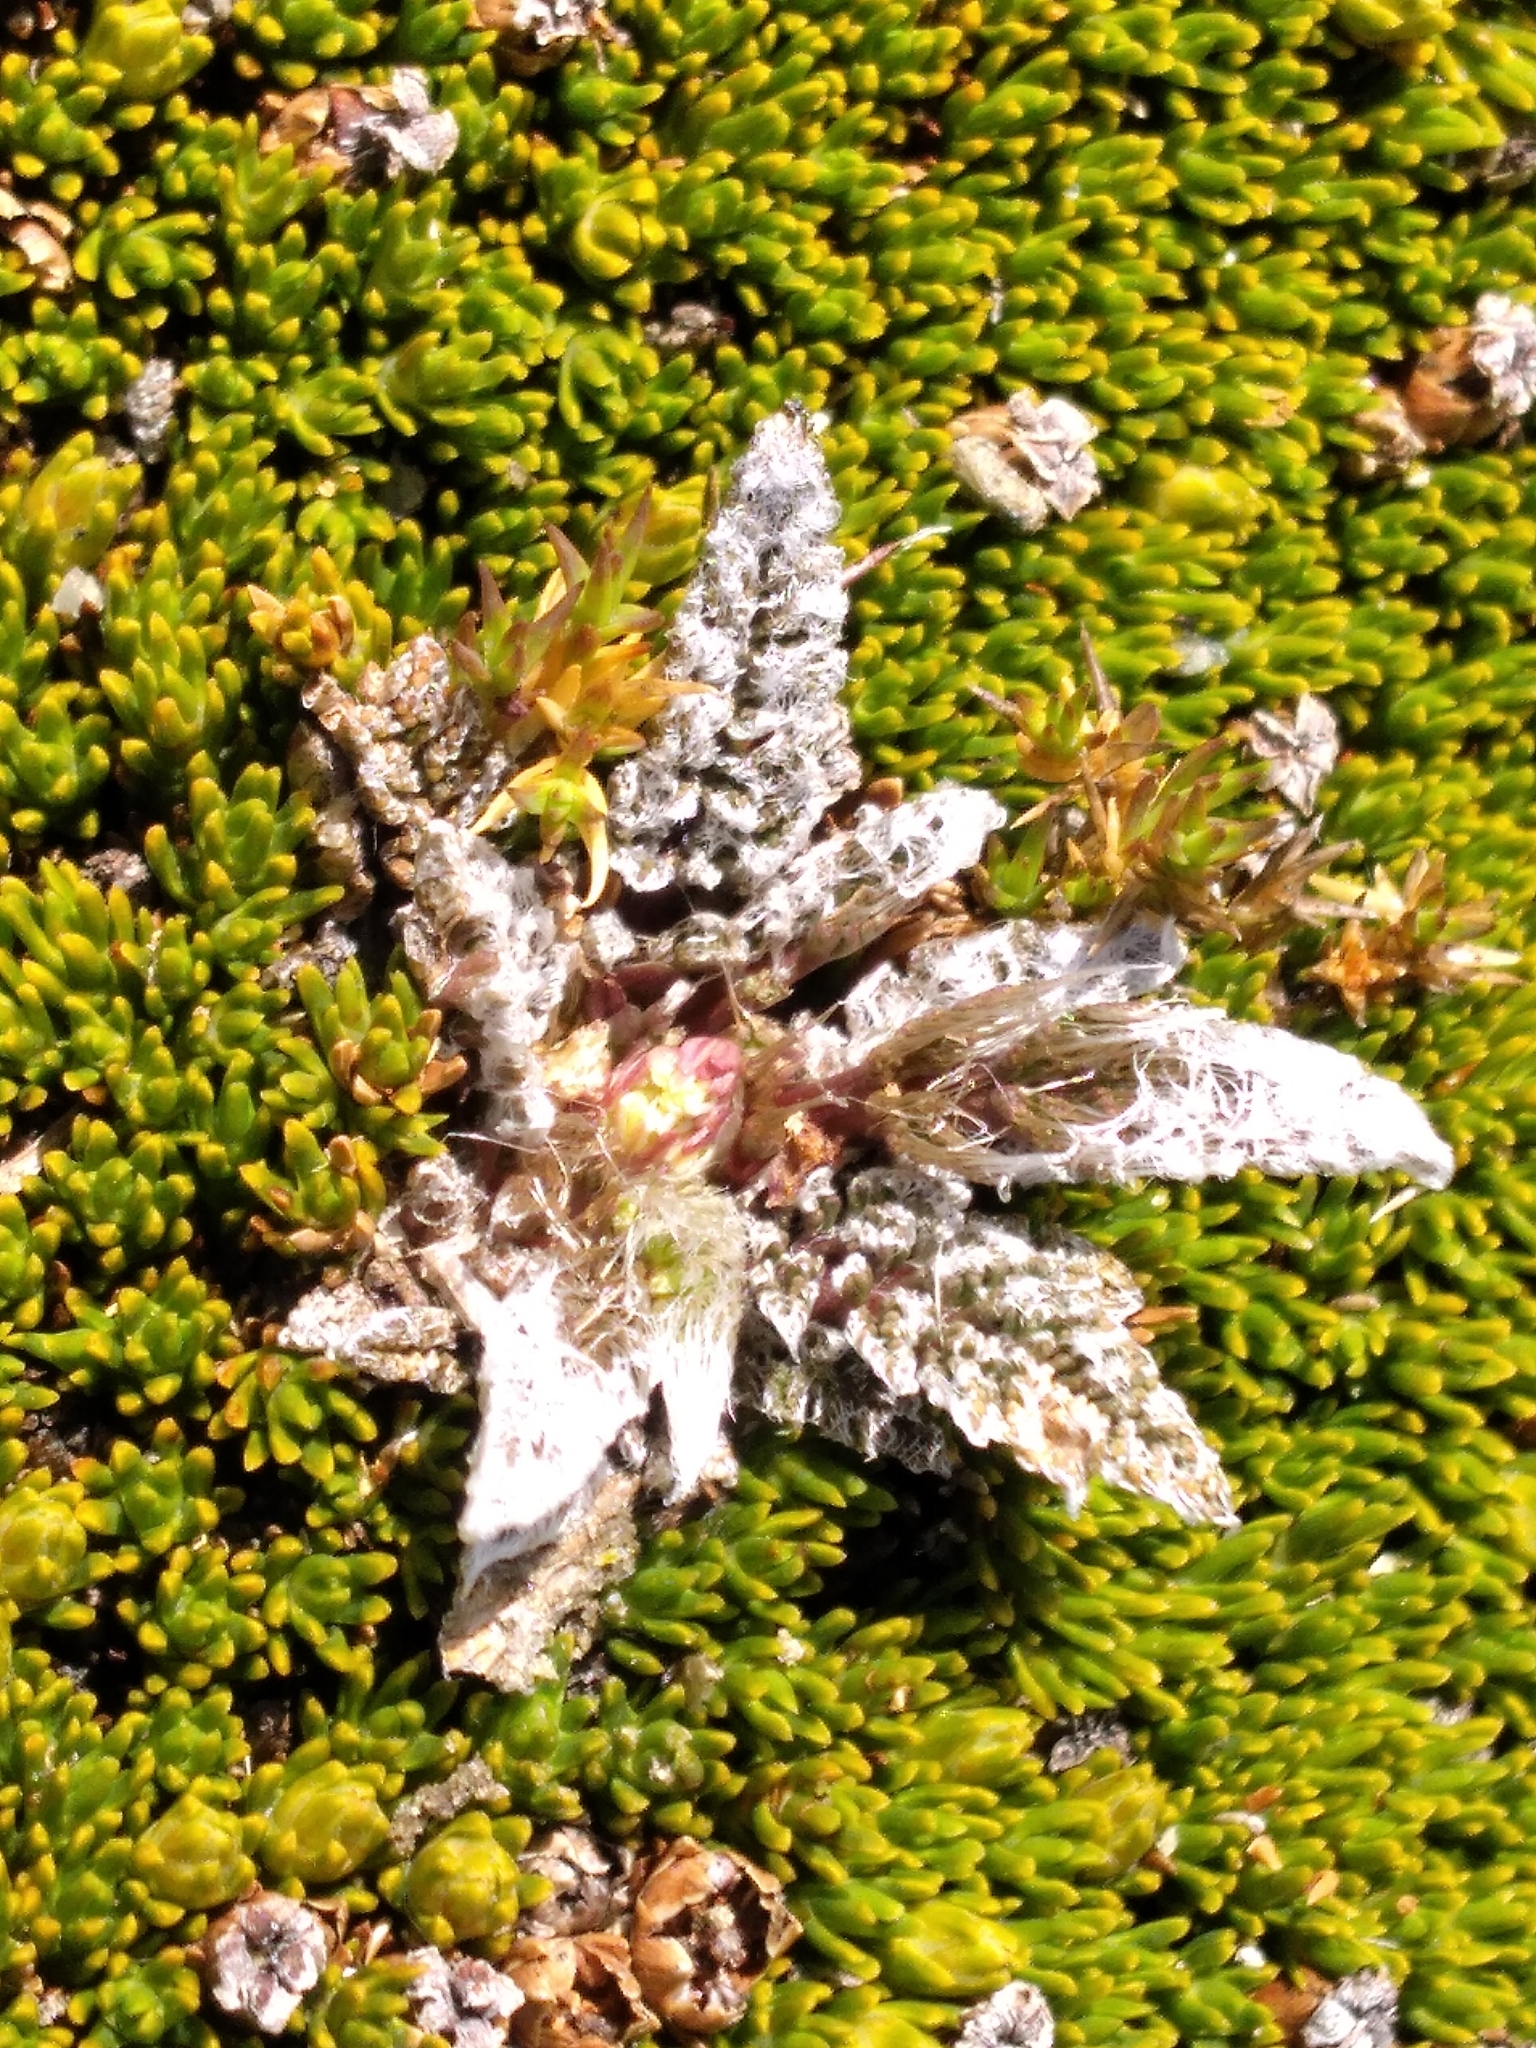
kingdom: Plantae
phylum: Tracheophyta
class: Magnoliopsida
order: Apiales
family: Apiaceae
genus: Anisotome
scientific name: Anisotome lanuginosa
